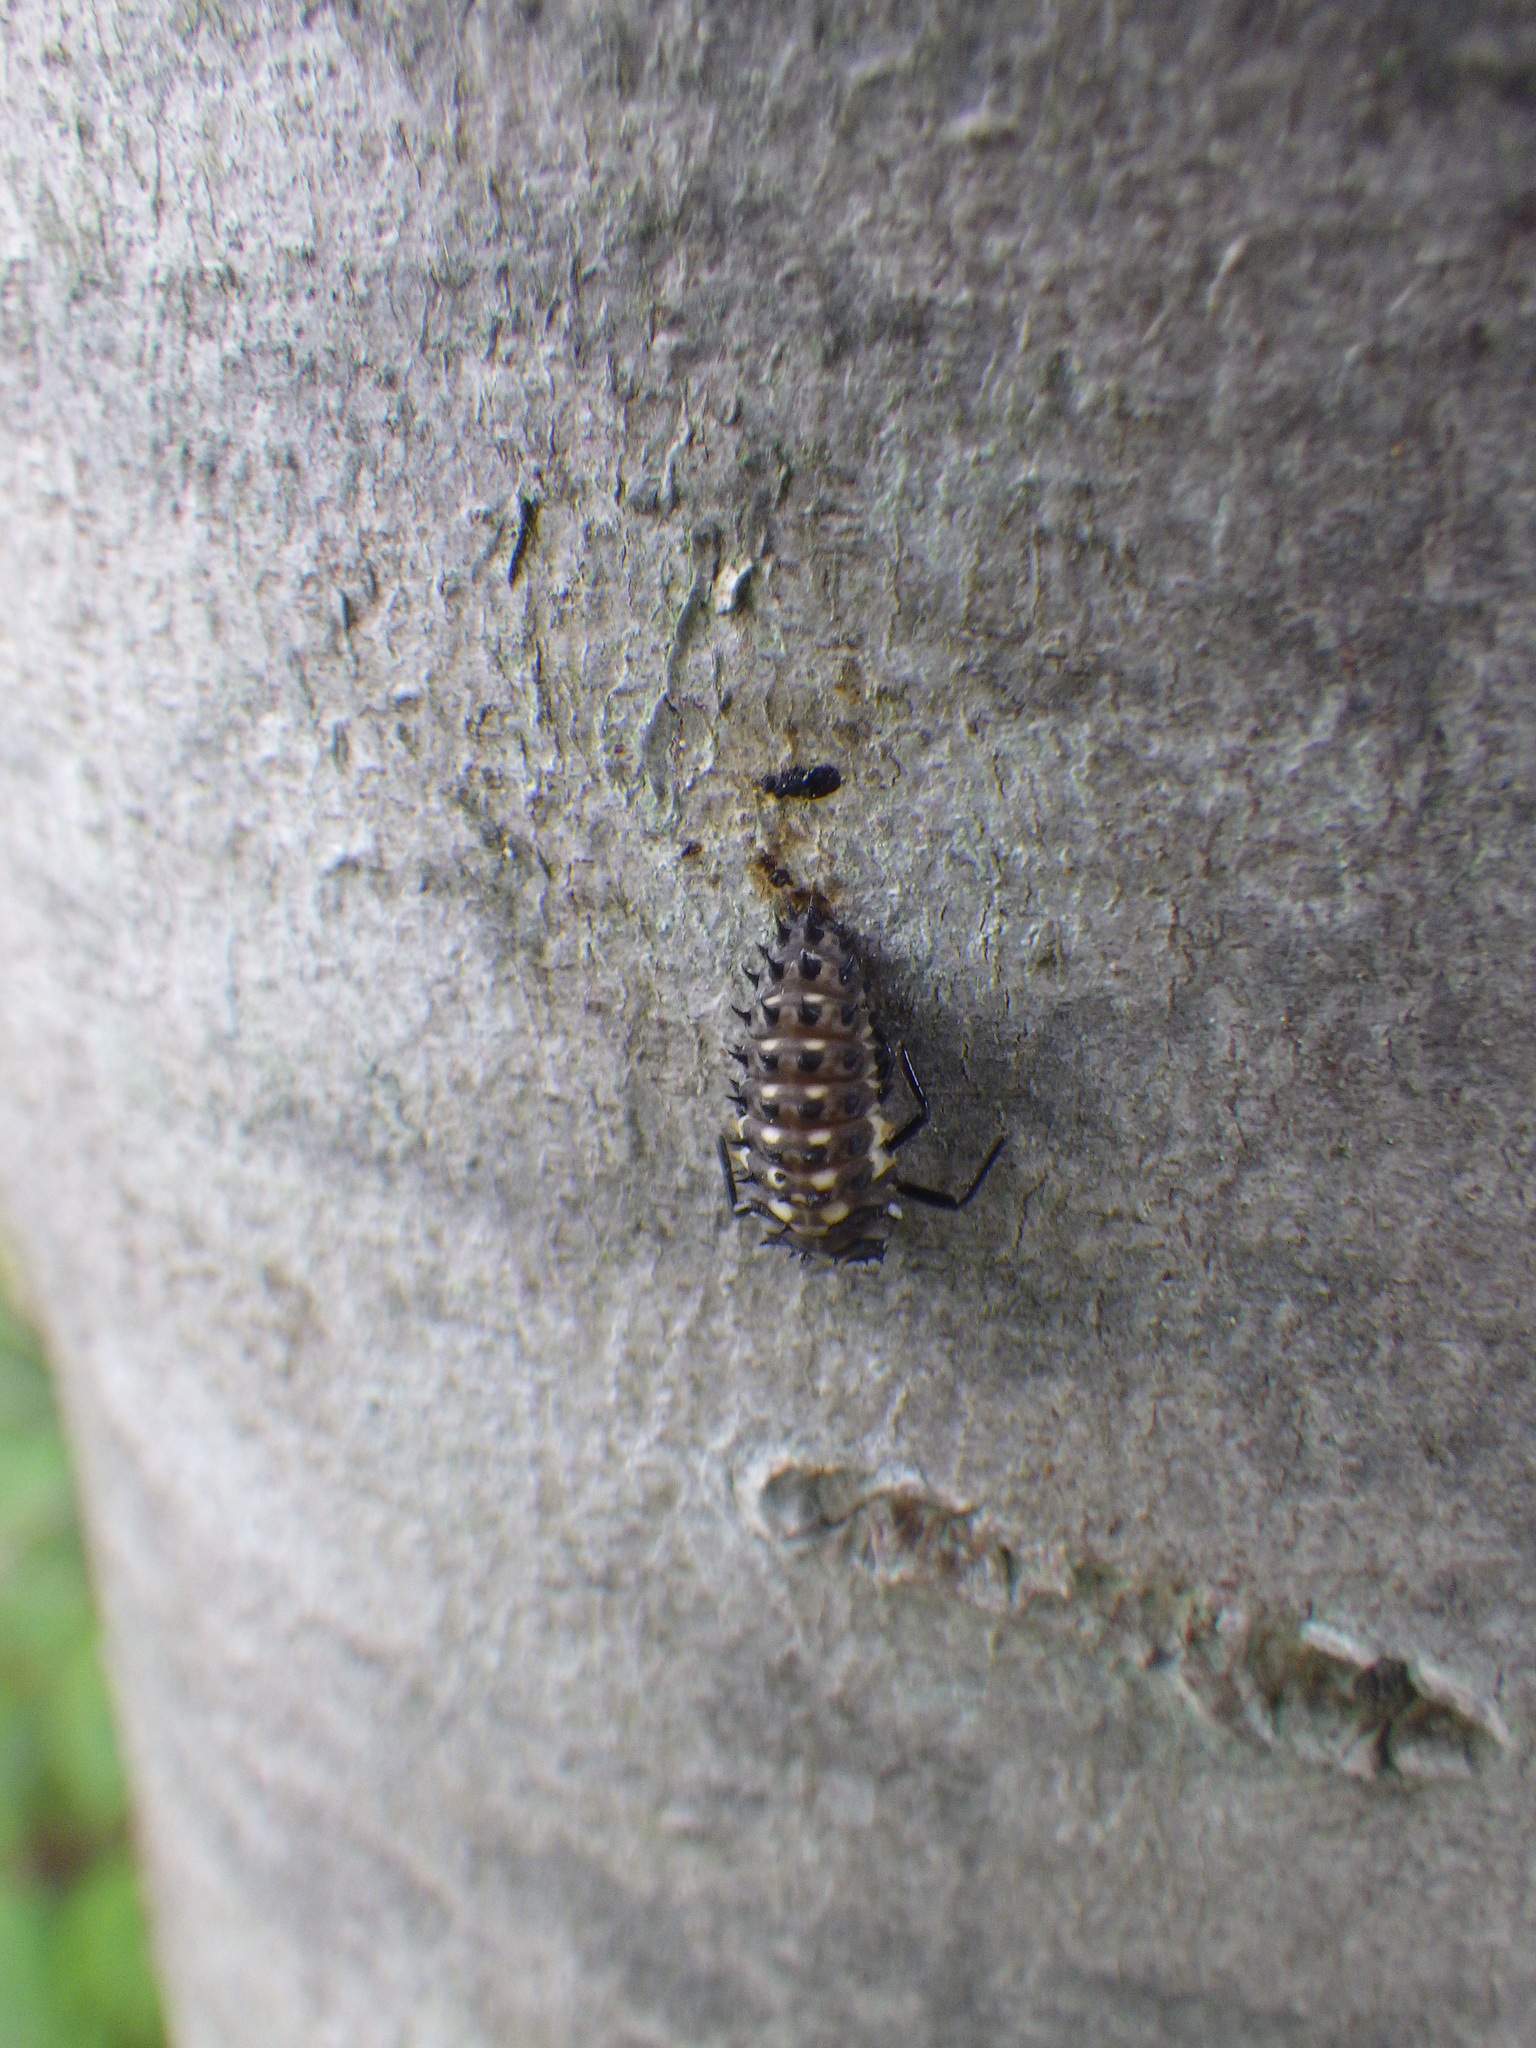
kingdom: Animalia
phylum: Arthropoda
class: Insecta
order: Coleoptera
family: Coccinellidae
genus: Anatis
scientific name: Anatis mali
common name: Eye-spotted lady beetle
